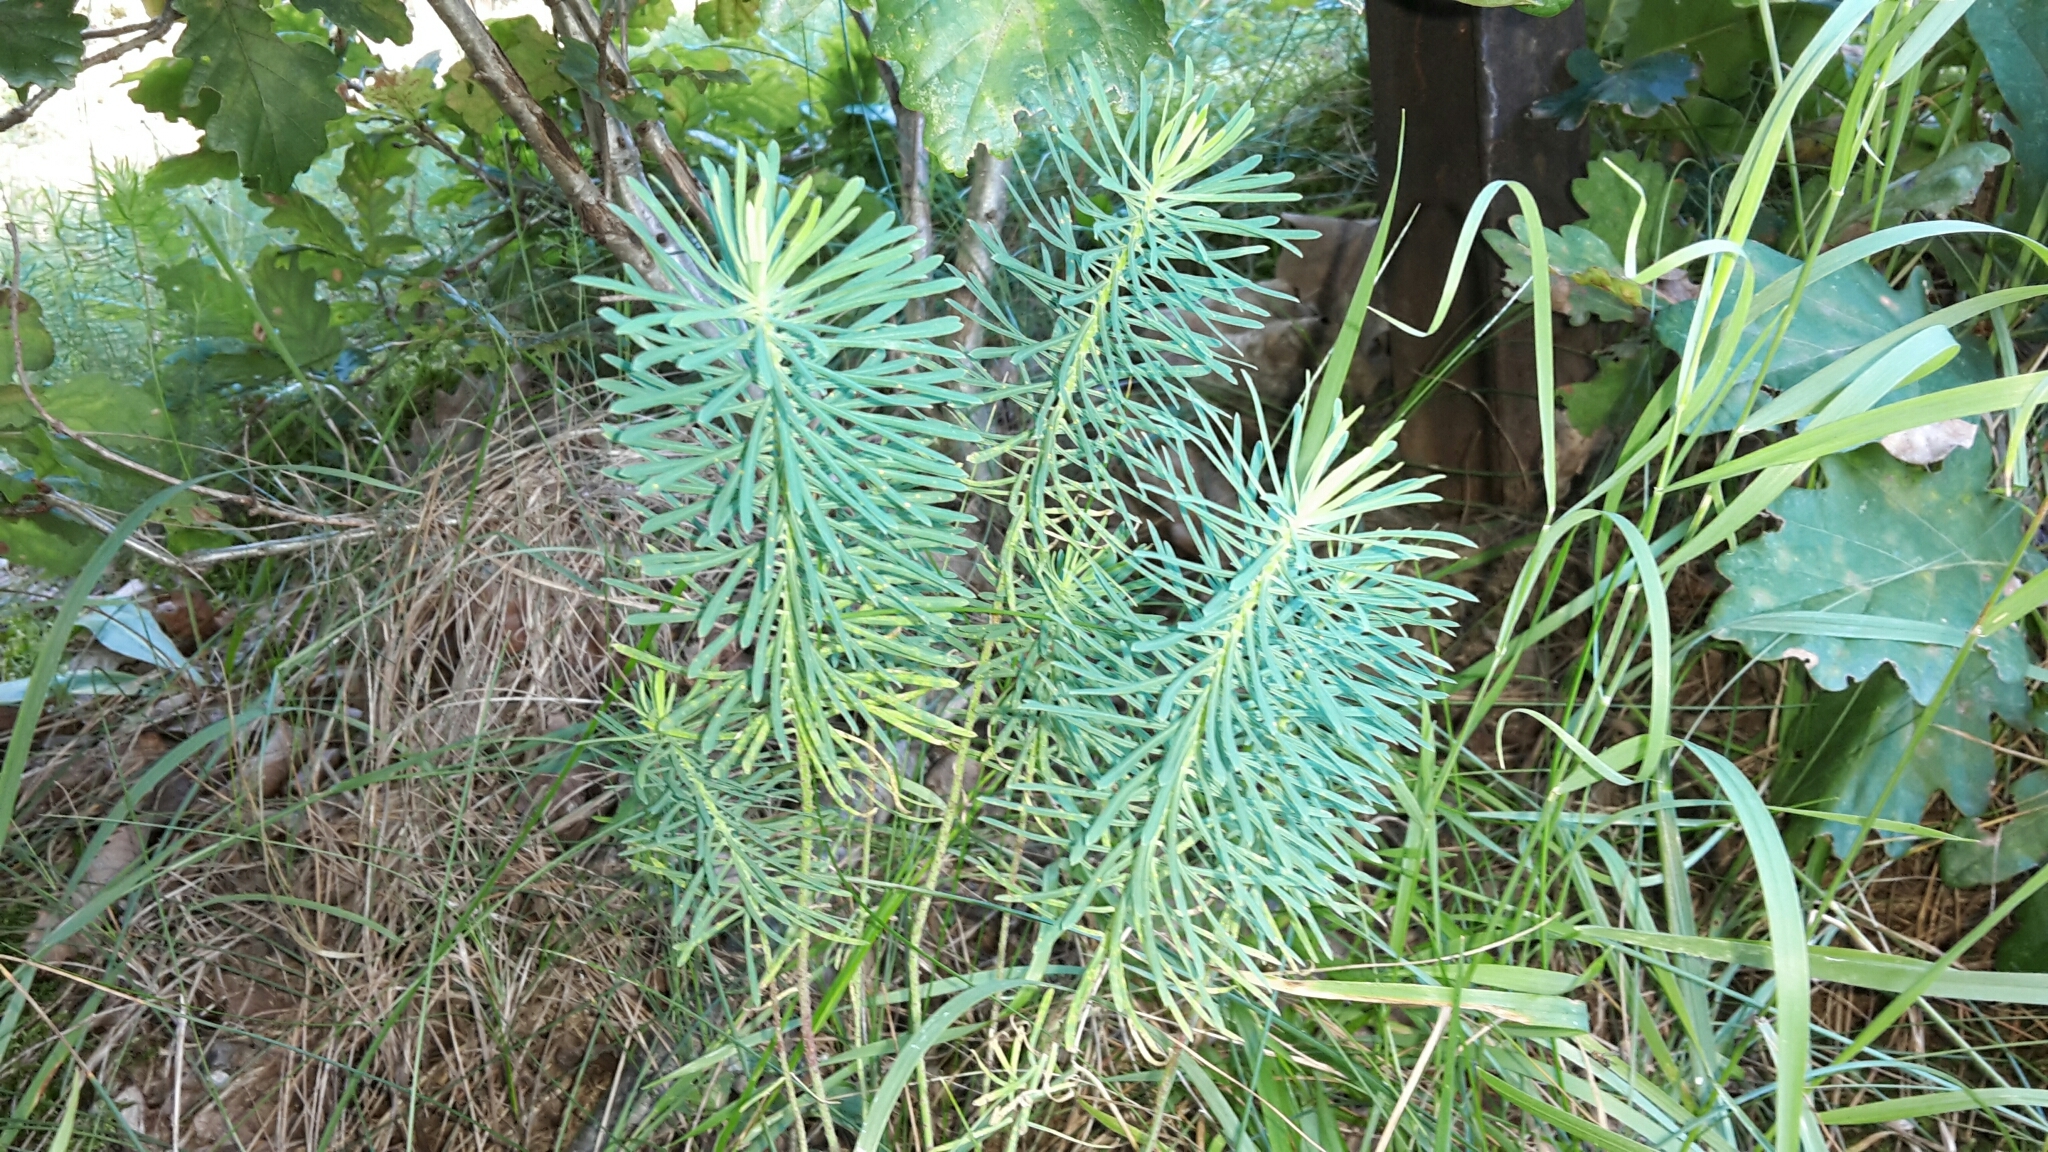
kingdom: Plantae
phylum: Tracheophyta
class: Magnoliopsida
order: Malpighiales
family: Euphorbiaceae
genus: Euphorbia
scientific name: Euphorbia cyparissias
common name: Cypress spurge
